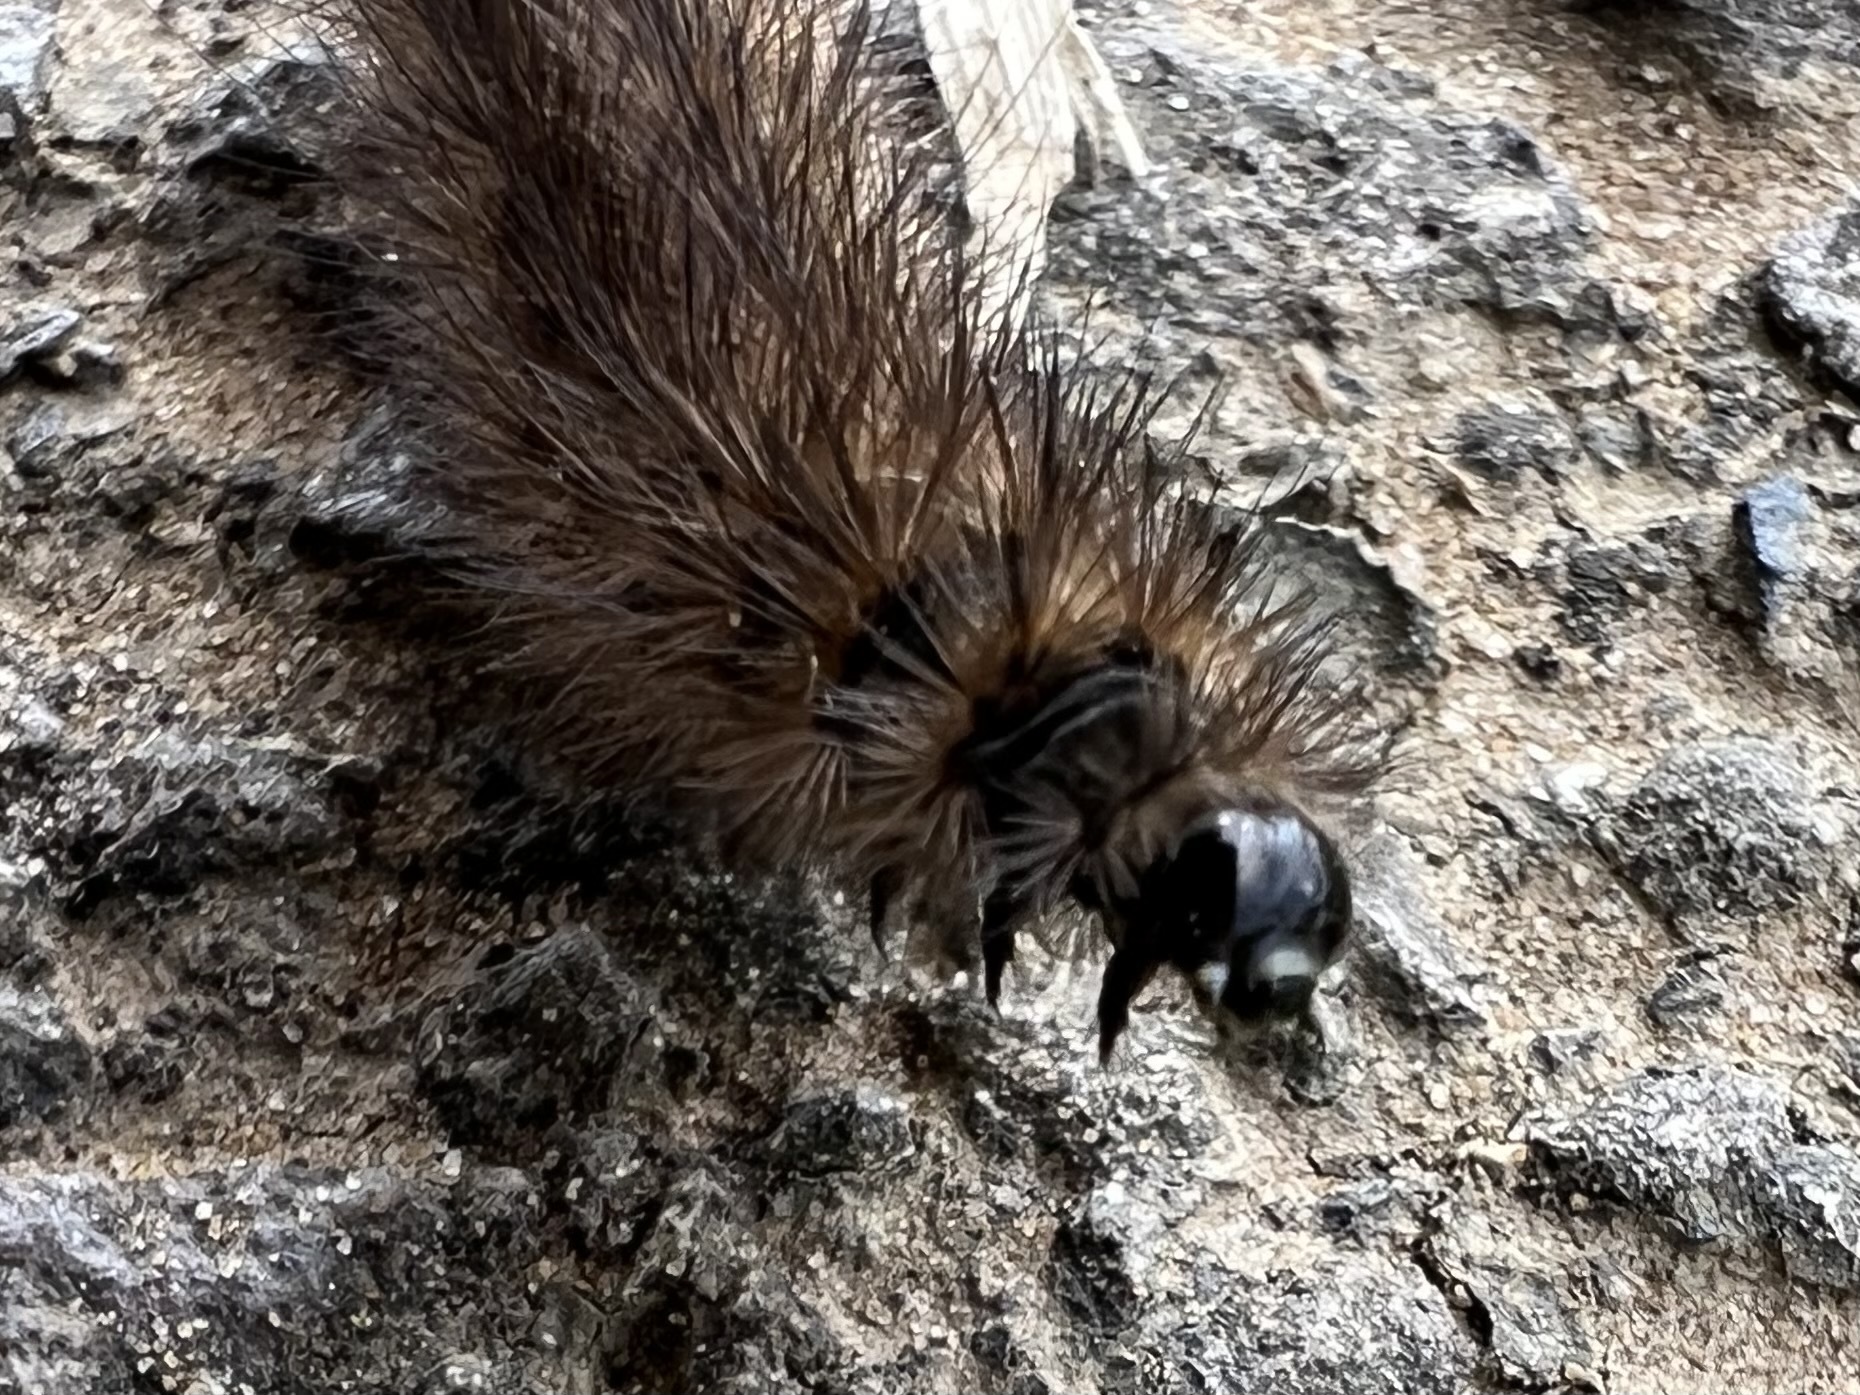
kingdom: Animalia
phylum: Arthropoda
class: Insecta
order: Lepidoptera
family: Erebidae
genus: Phragmatobia
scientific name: Phragmatobia fuliginosa
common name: Ruby tiger
